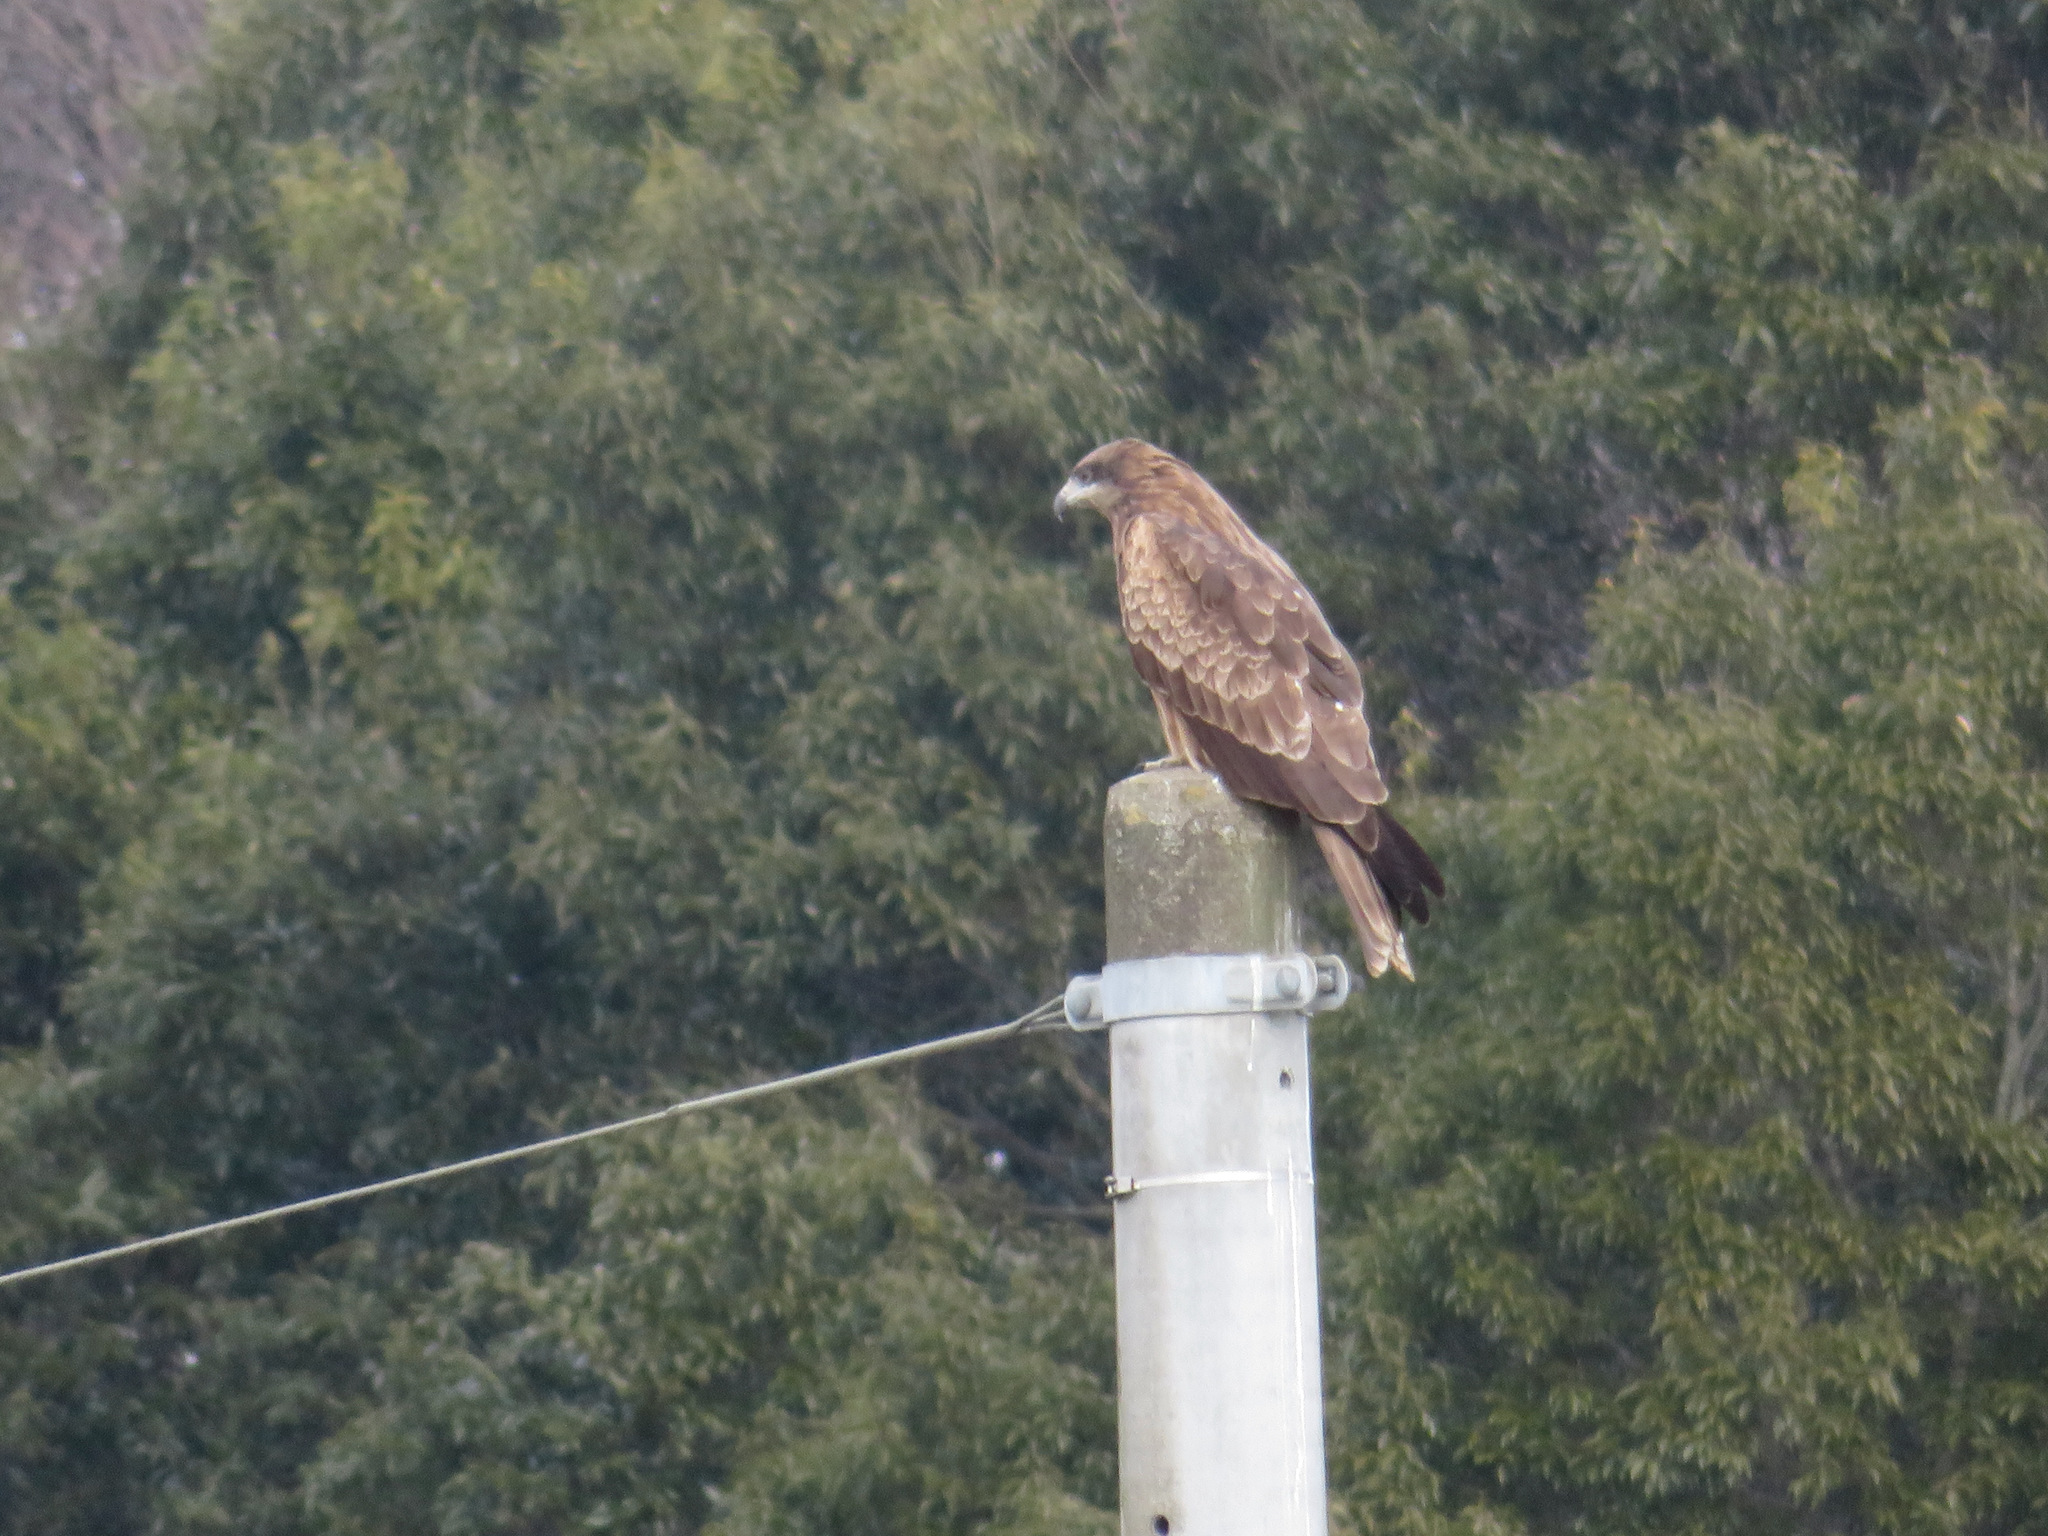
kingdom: Animalia
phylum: Chordata
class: Aves
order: Accipitriformes
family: Accipitridae
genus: Milvus
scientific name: Milvus migrans
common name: Black kite
